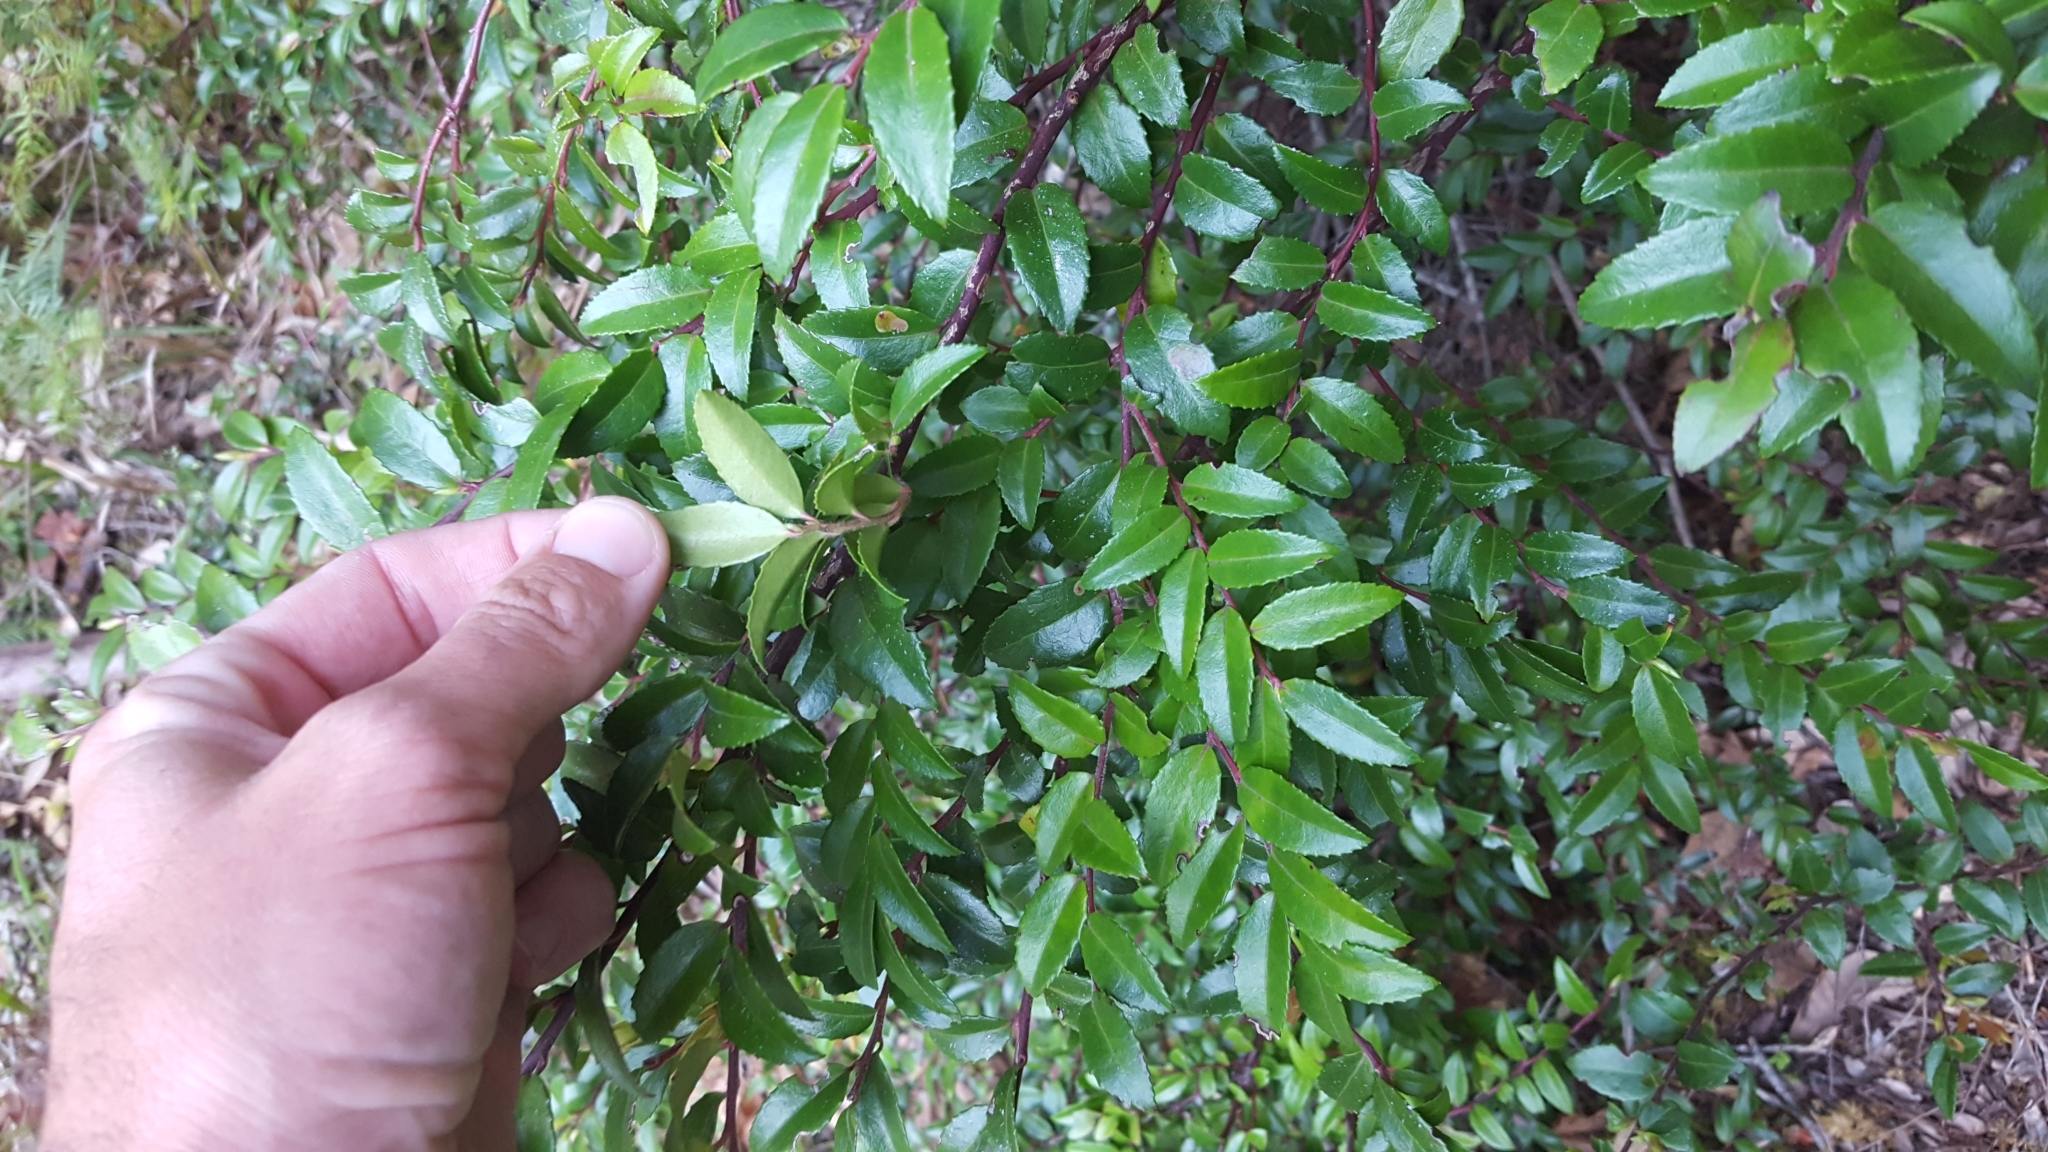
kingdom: Plantae
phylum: Tracheophyta
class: Magnoliopsida
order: Ericales
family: Ericaceae
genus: Vaccinium
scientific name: Vaccinium ovatum
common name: California-huckleberry
